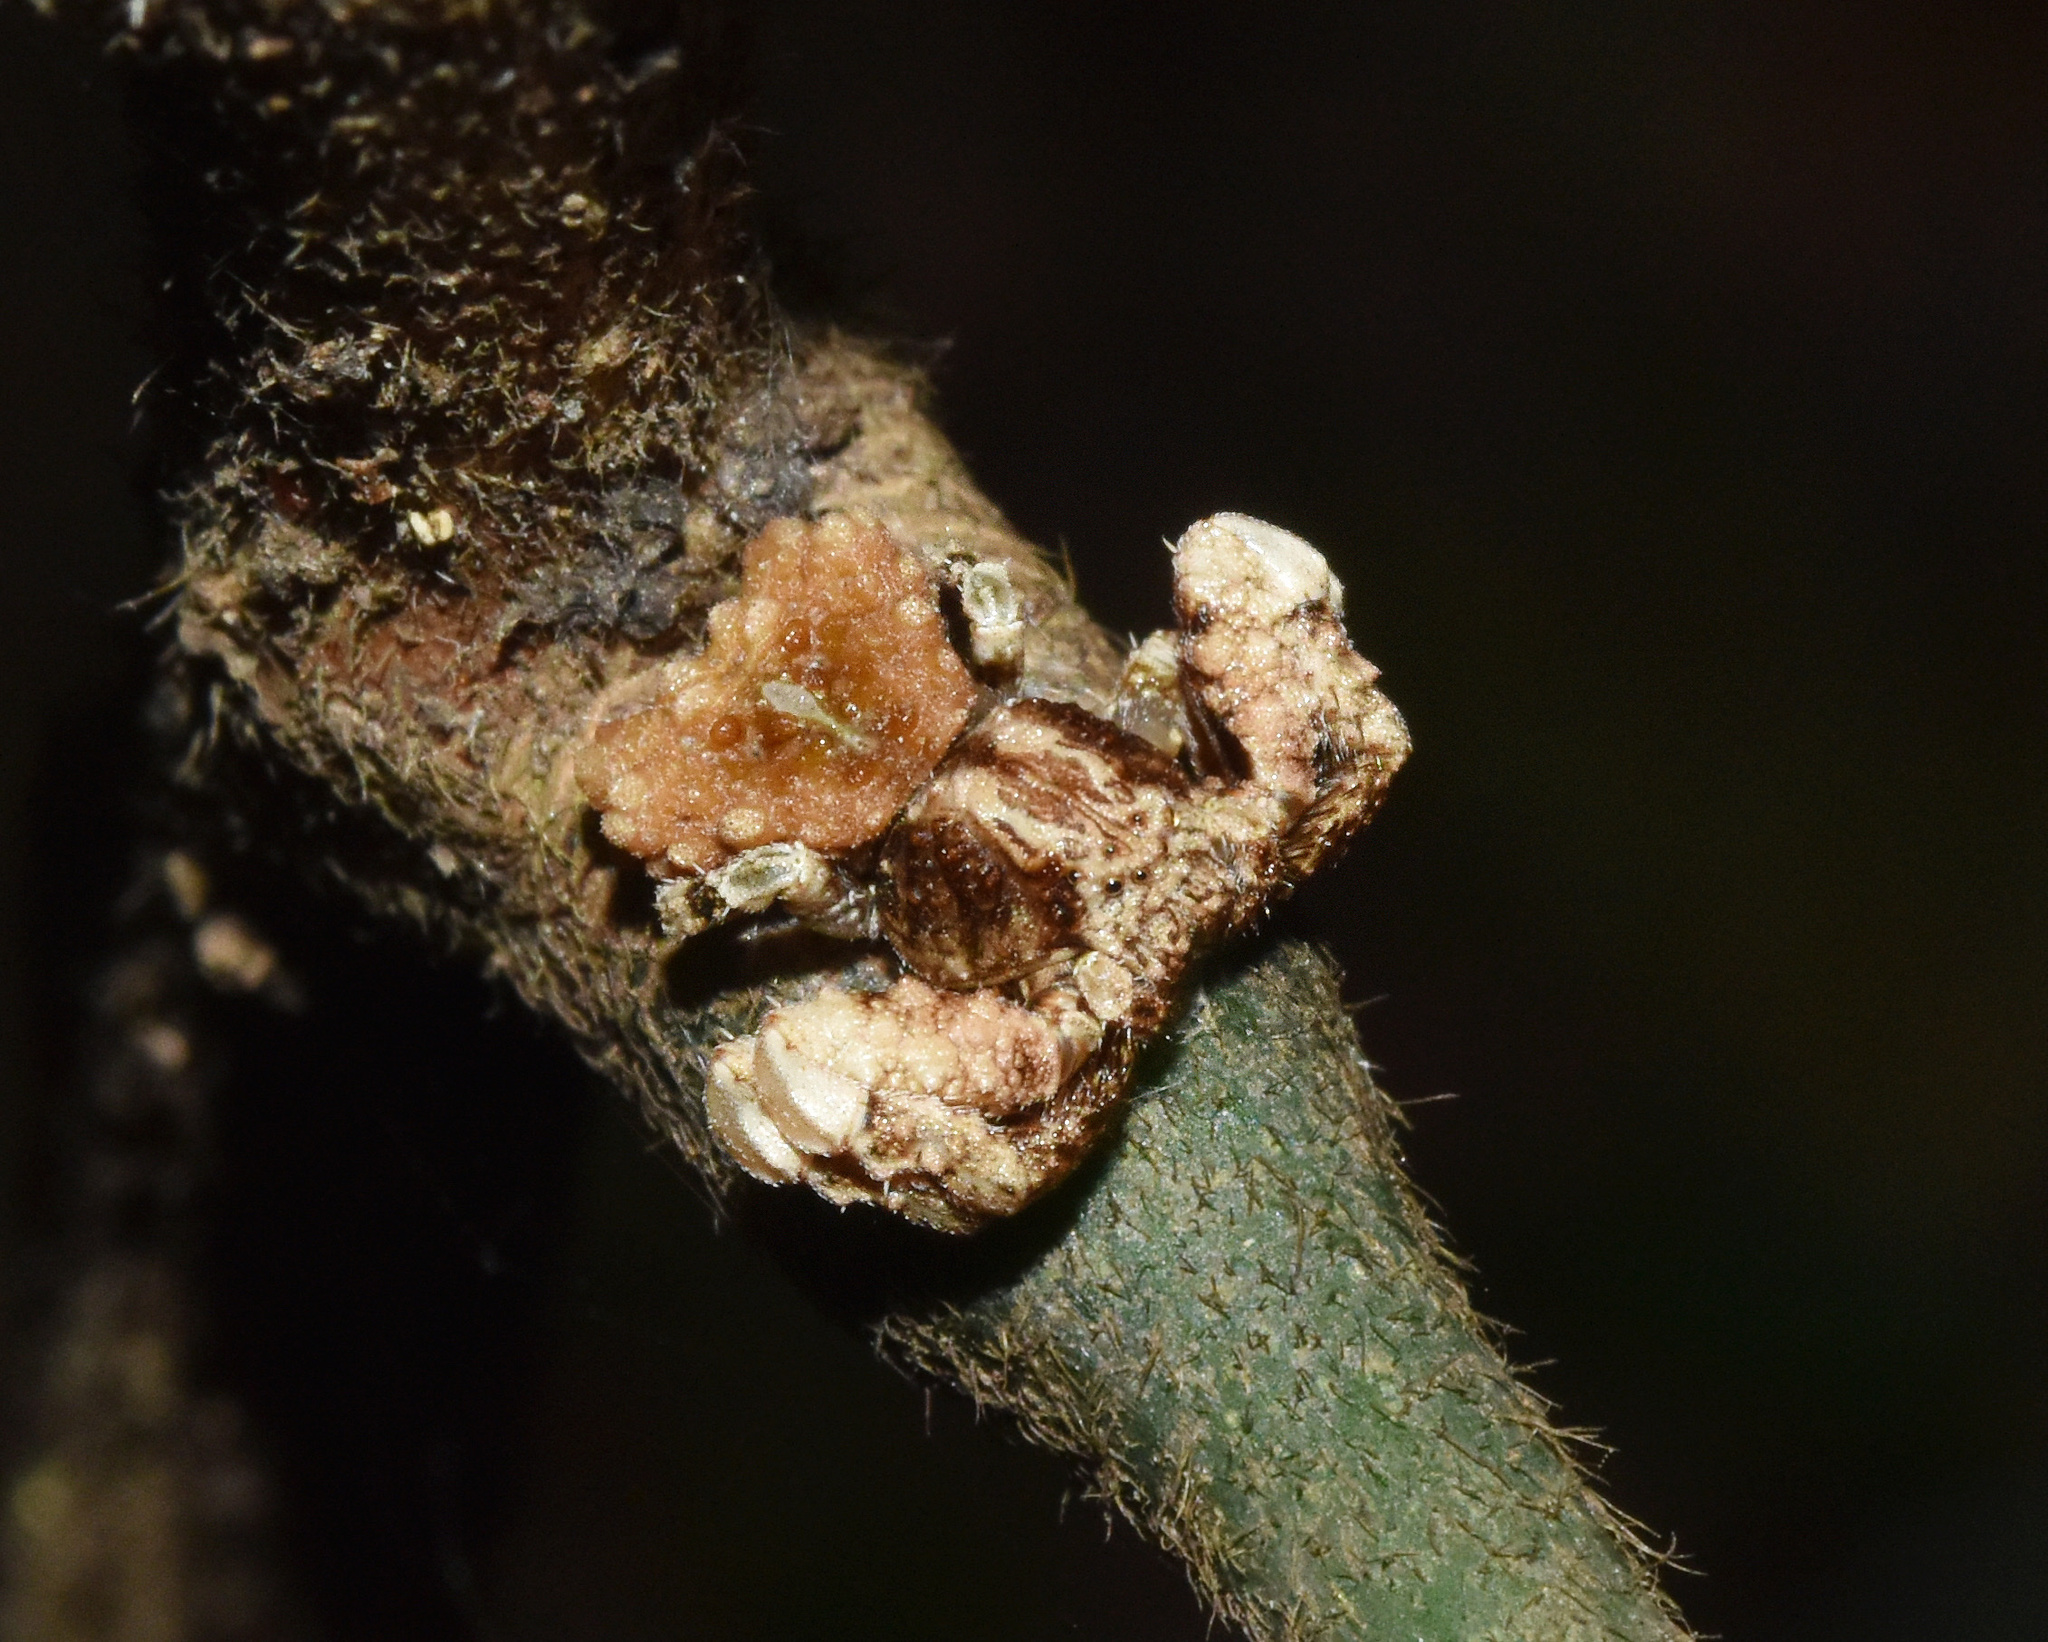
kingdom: Animalia
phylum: Arthropoda
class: Arachnida
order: Araneae
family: Thomisidae
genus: Phrynarachne
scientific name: Phrynarachne rugosa
